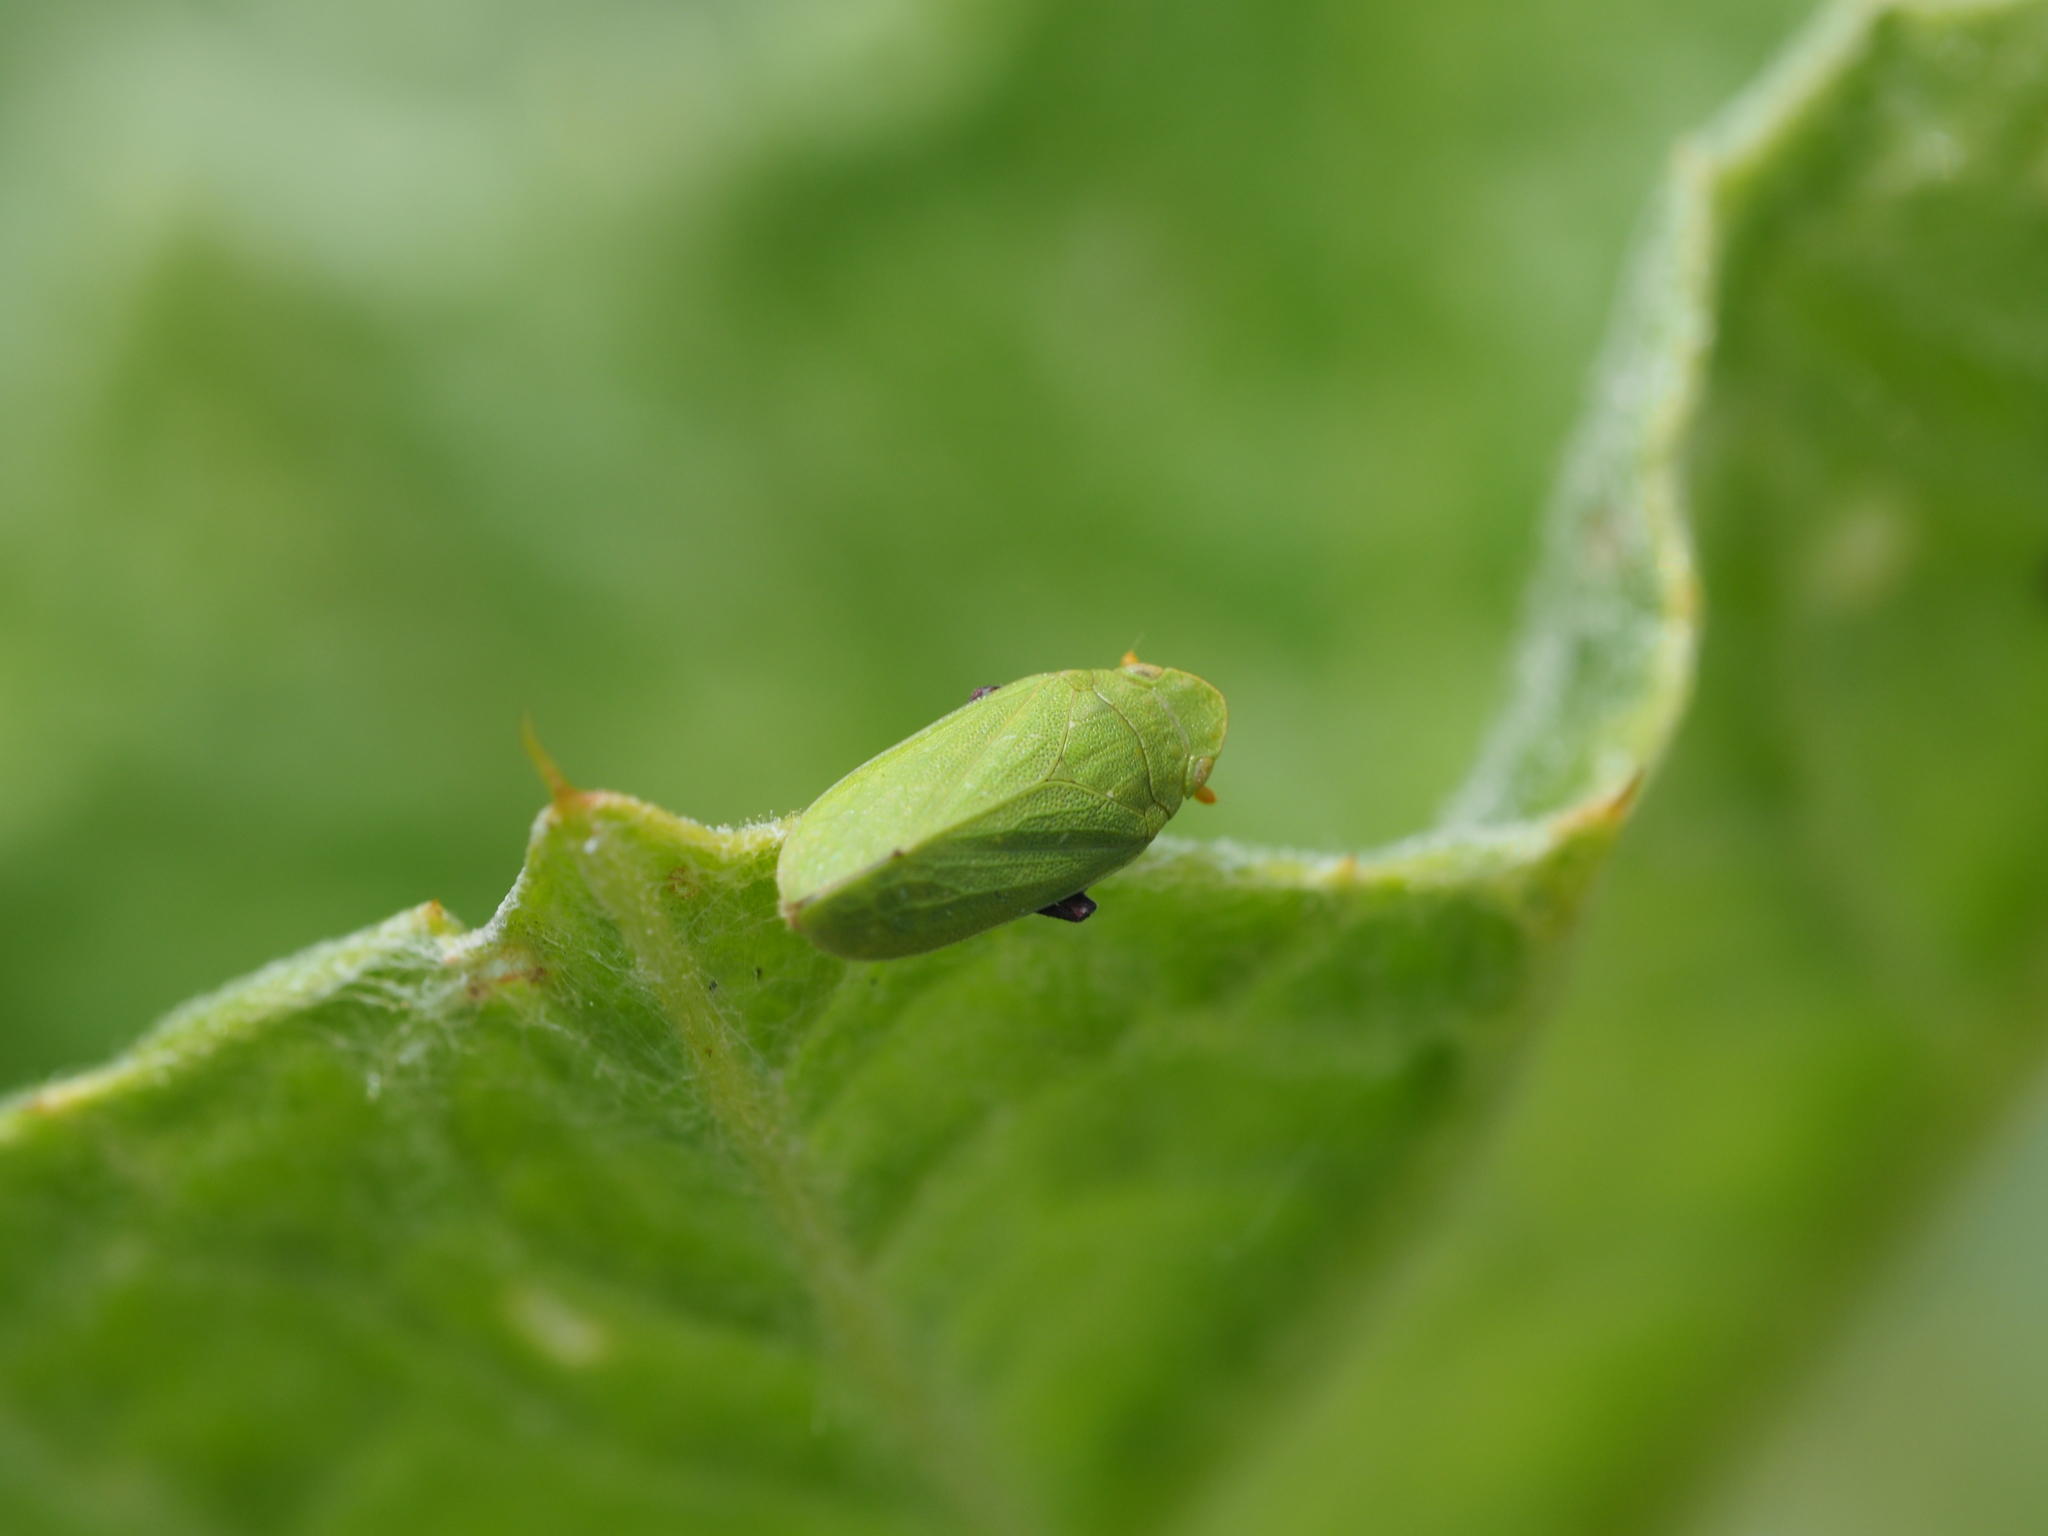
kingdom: Animalia
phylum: Arthropoda
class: Insecta
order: Hemiptera
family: Tettigometridae
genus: Tettigometra
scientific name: Tettigometra sulphurea
